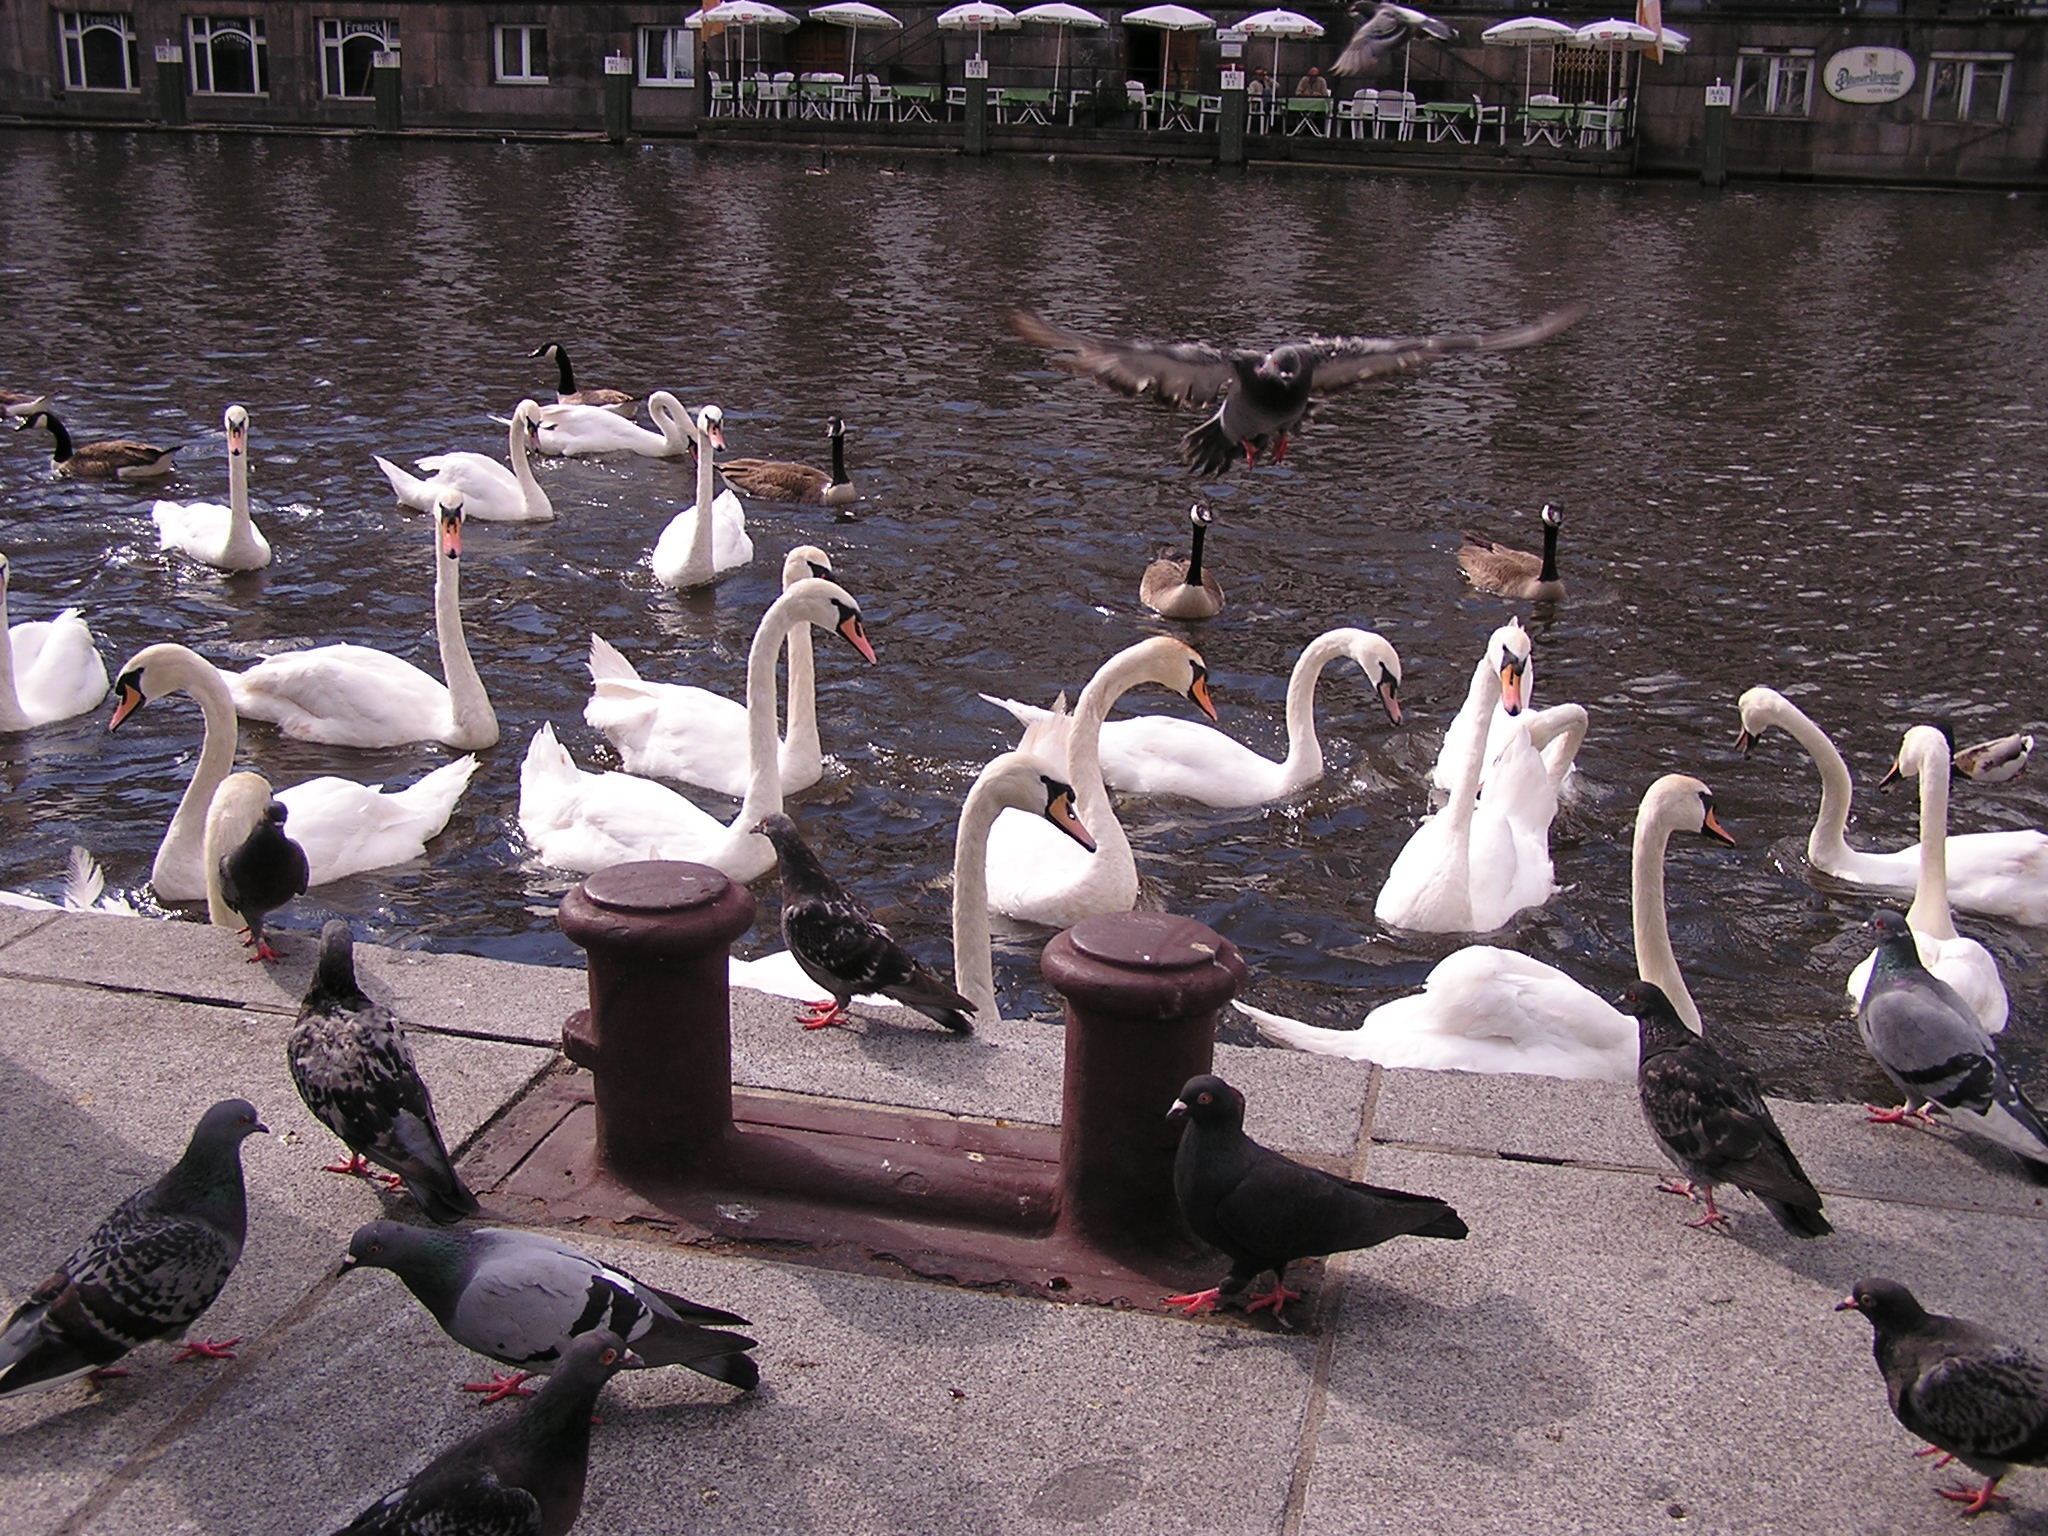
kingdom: Animalia
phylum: Chordata
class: Aves
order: Anseriformes
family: Anatidae
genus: Cygnus
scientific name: Cygnus olor
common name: Mute swan
